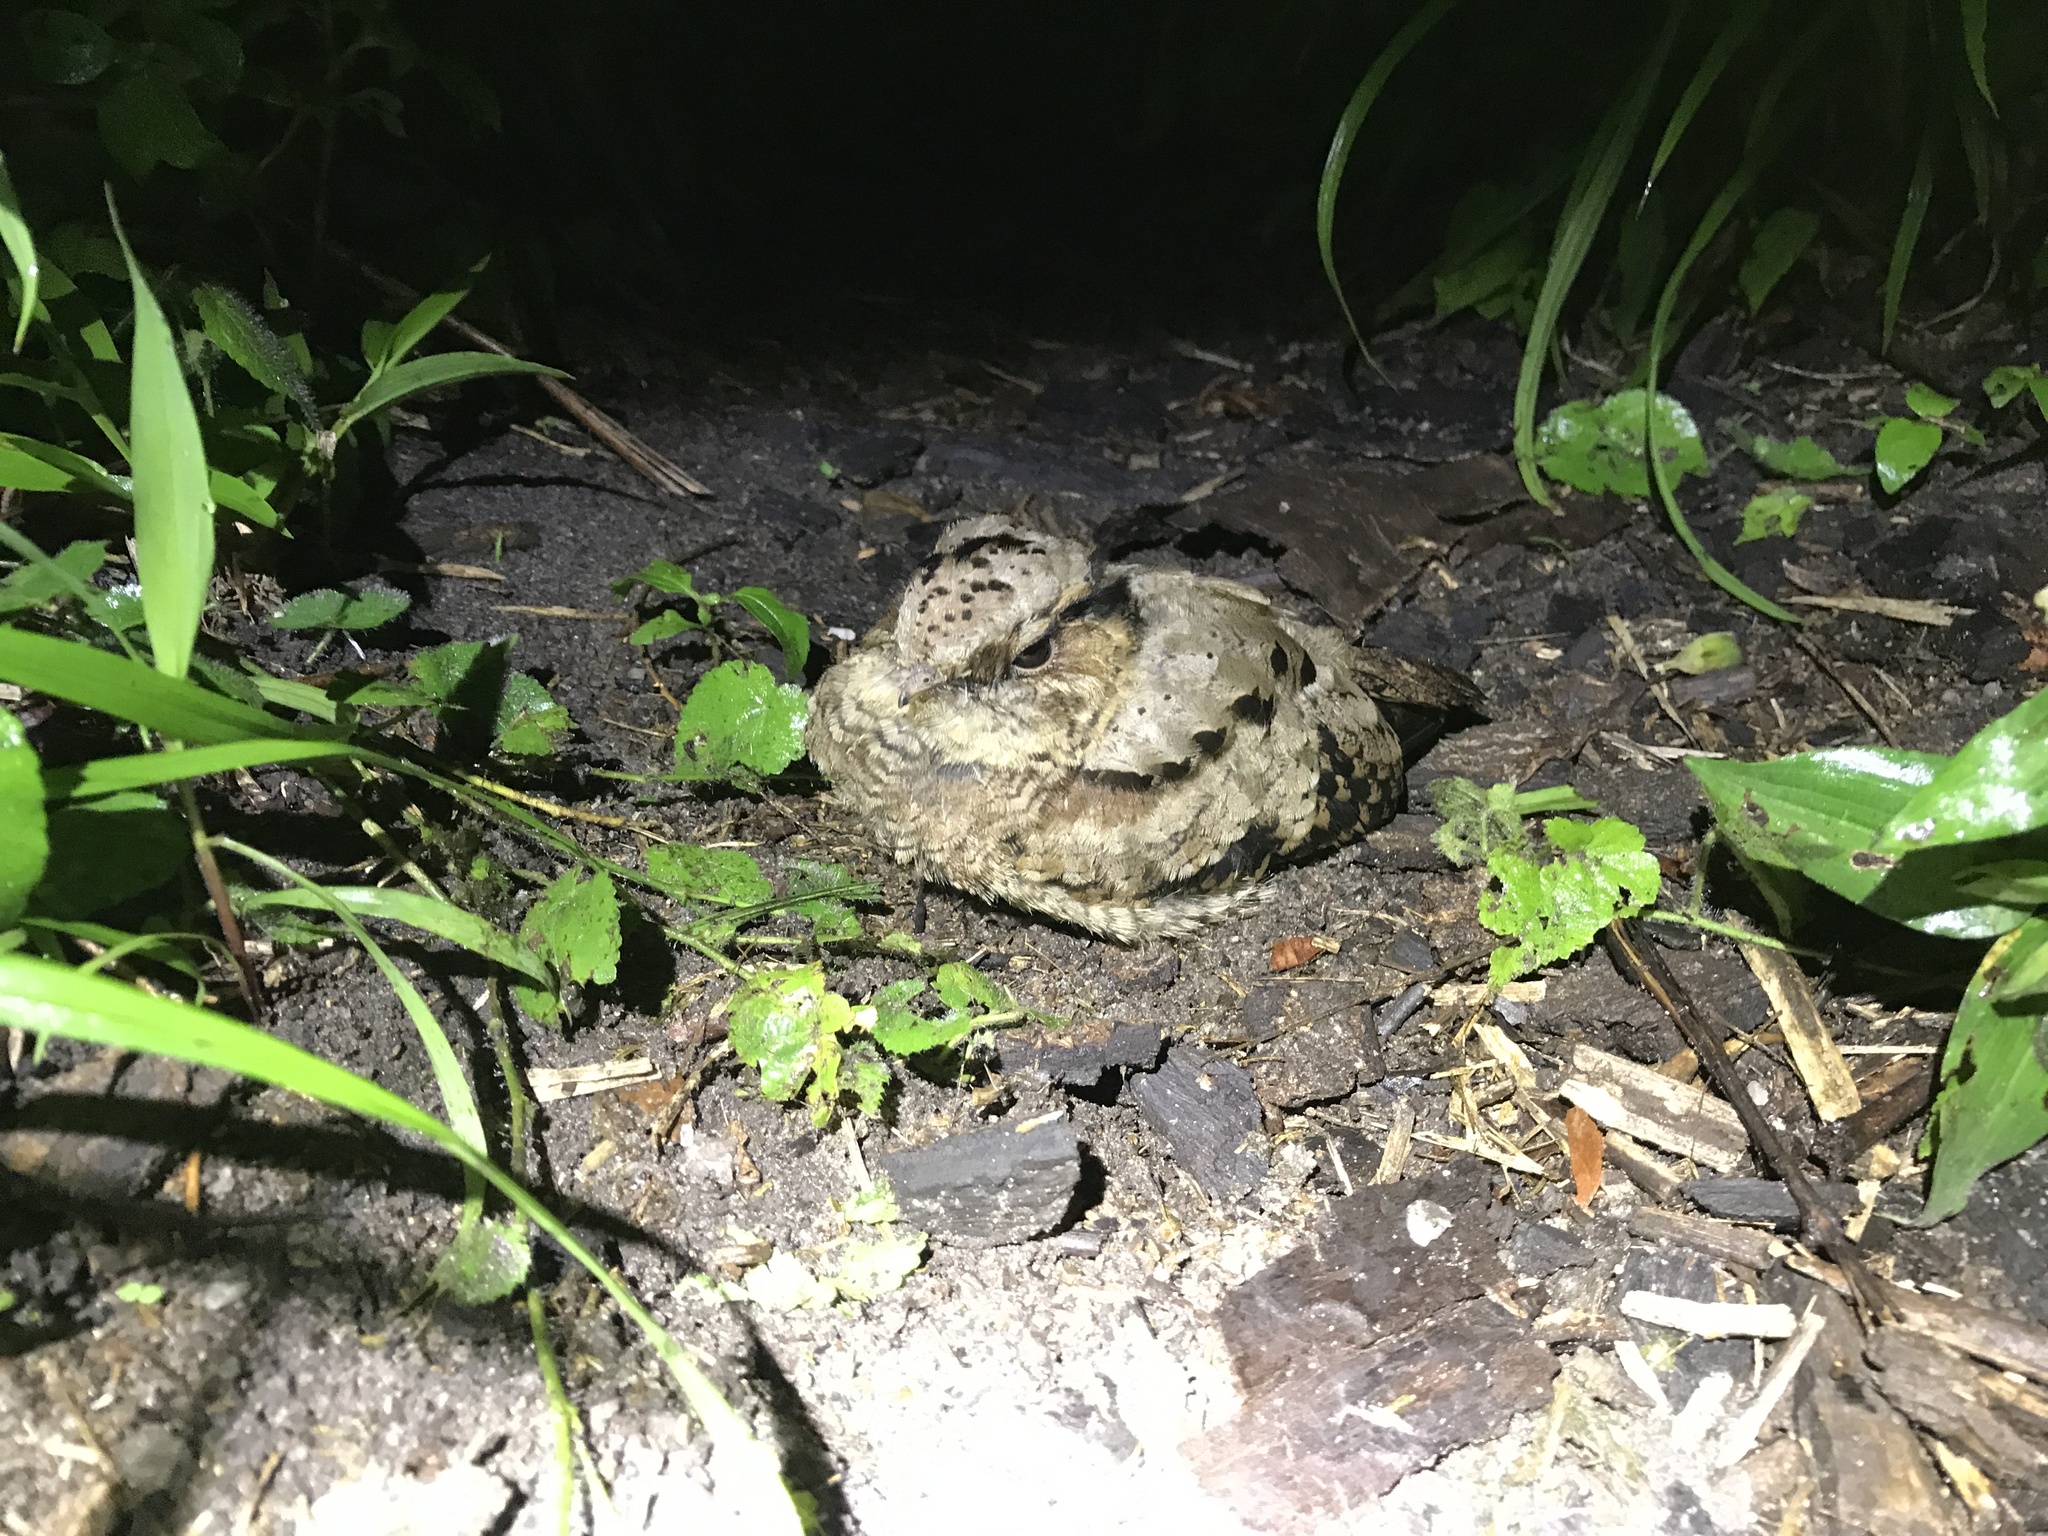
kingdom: Animalia
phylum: Chordata
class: Aves
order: Caprimulgiformes
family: Caprimulgidae
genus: Nyctidromus
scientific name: Nyctidromus albicollis
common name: Pauraque
